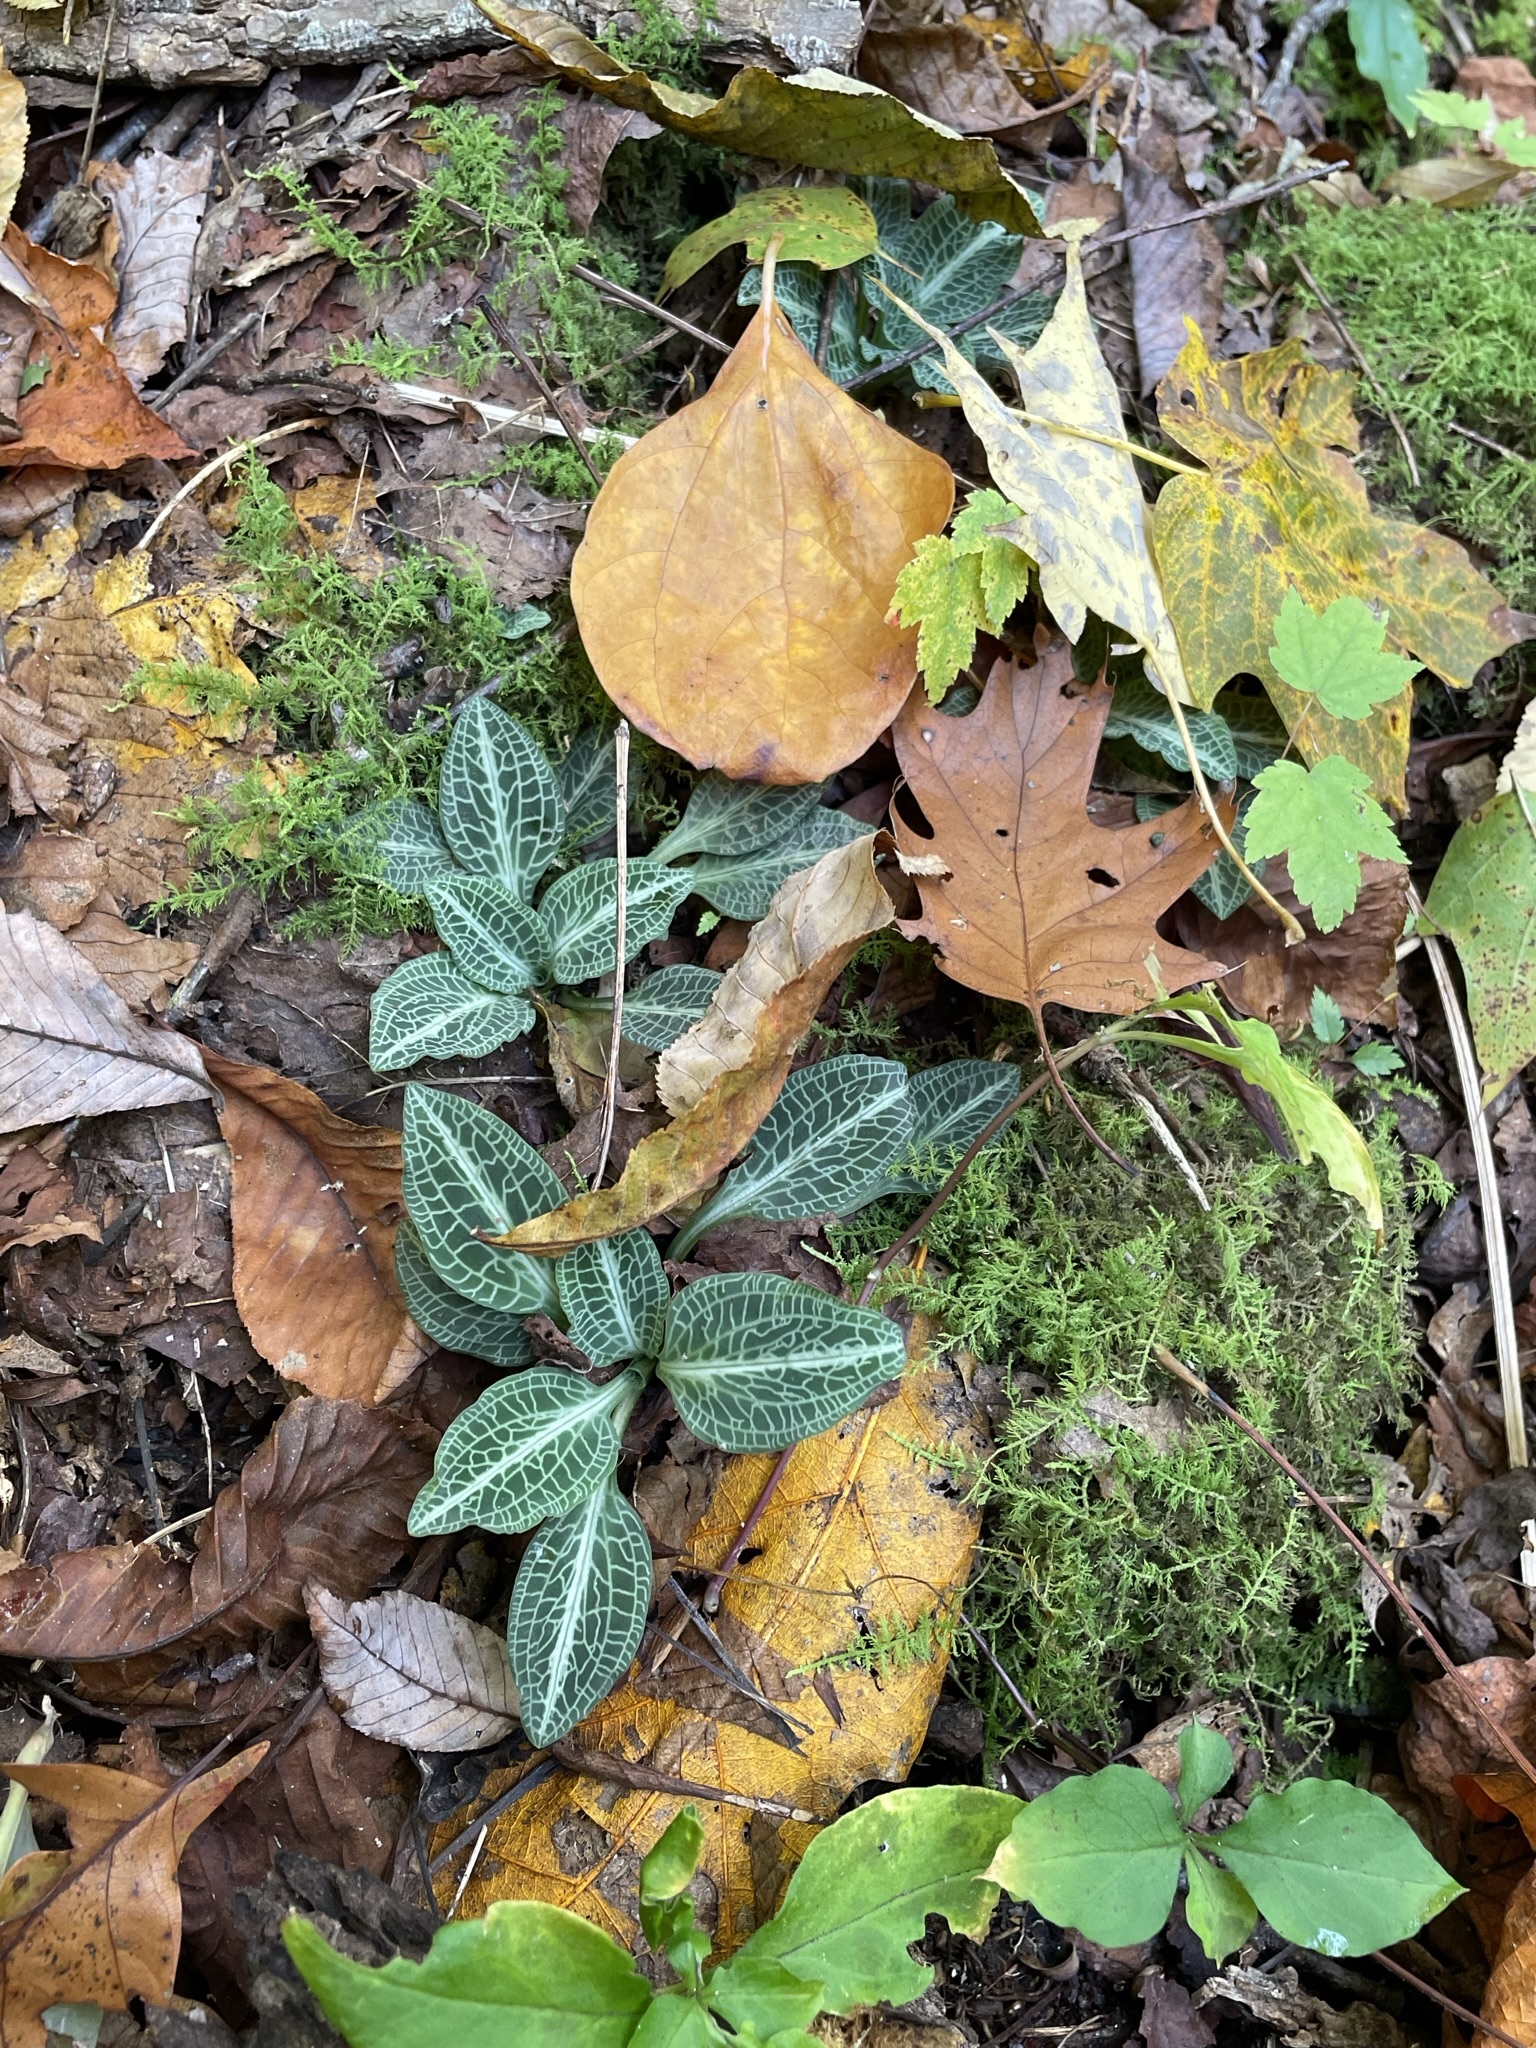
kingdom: Plantae
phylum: Tracheophyta
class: Liliopsida
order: Asparagales
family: Orchidaceae
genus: Goodyera
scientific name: Goodyera pubescens
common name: Downy rattlesnake-plantain
